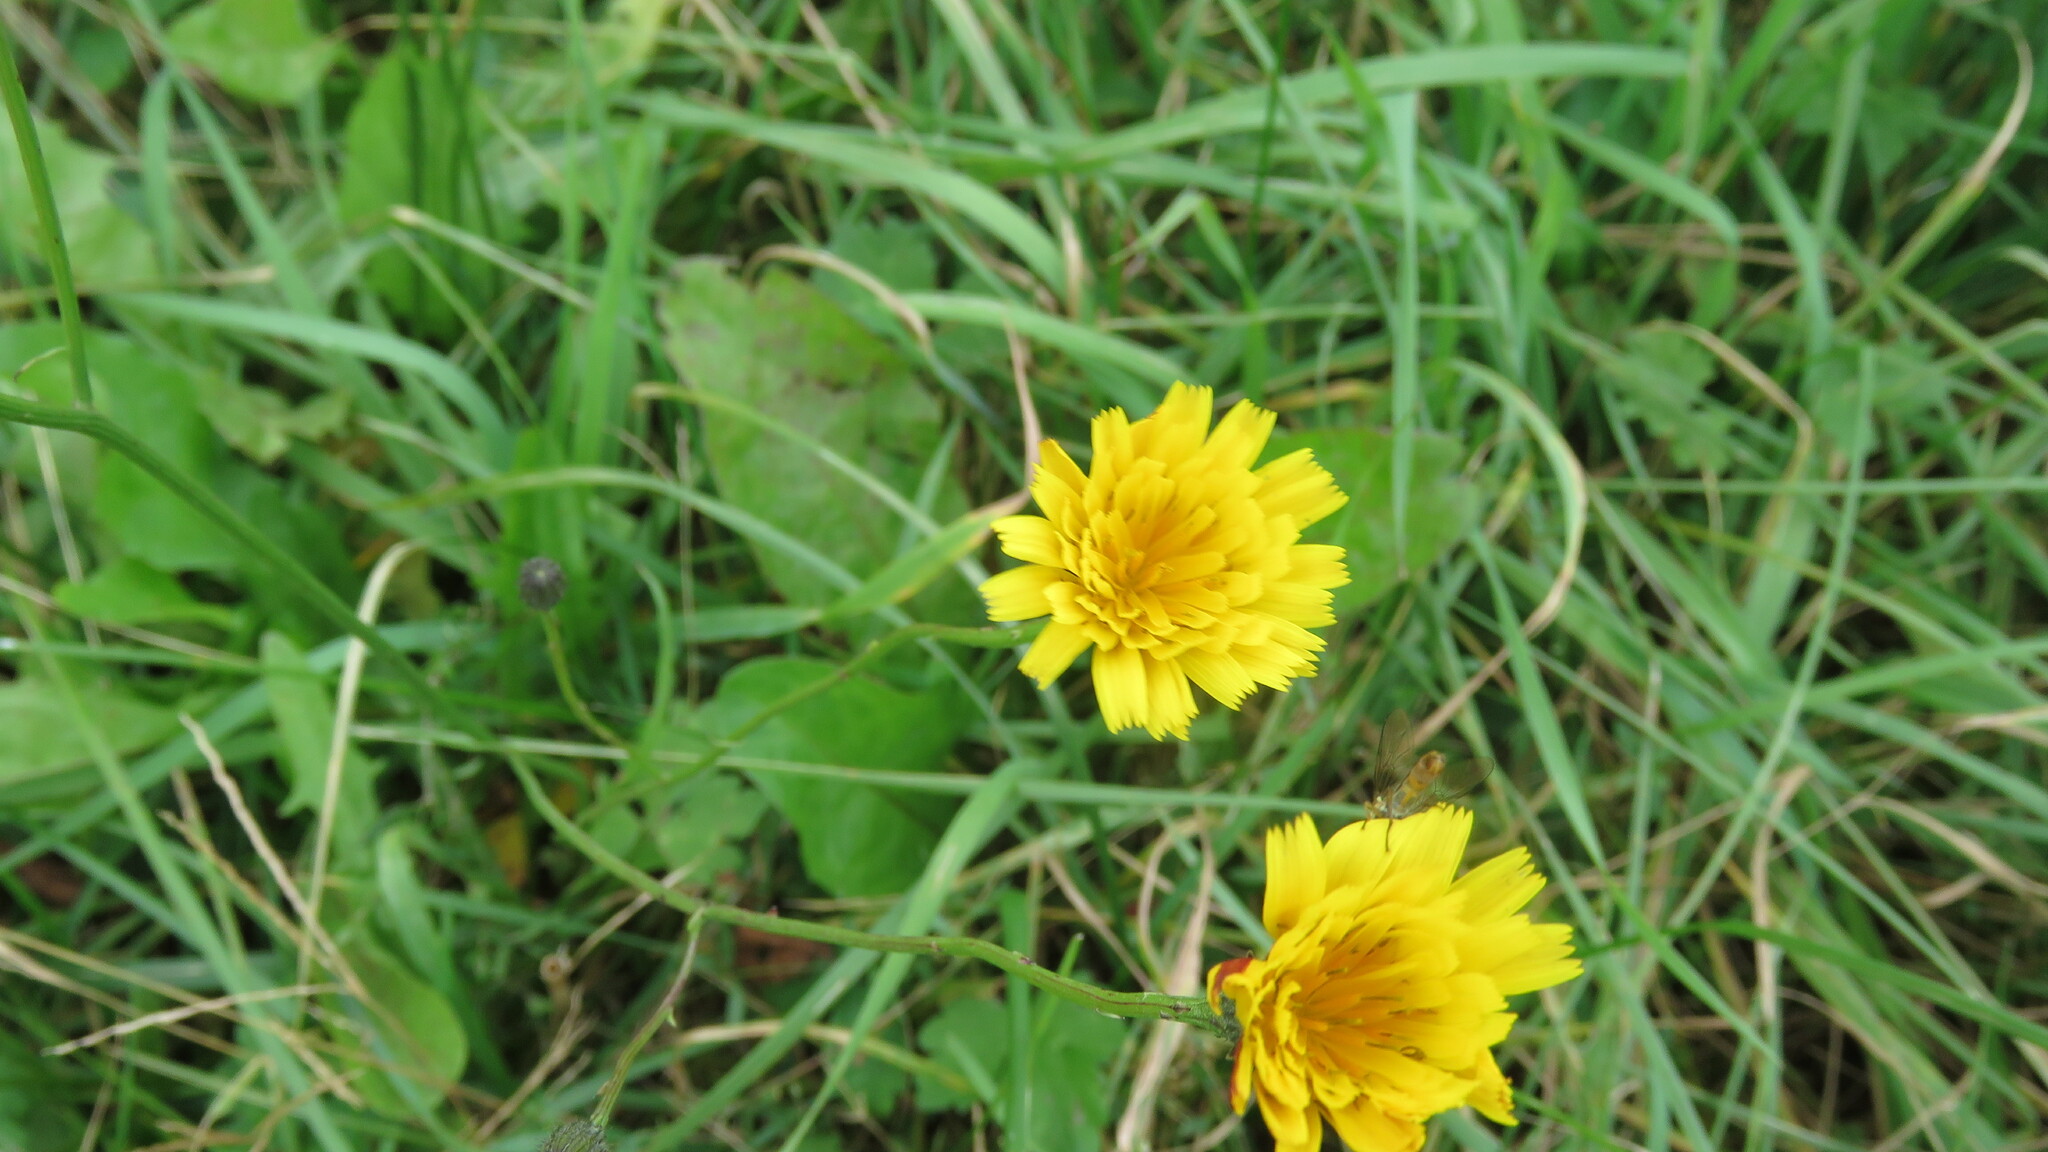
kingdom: Plantae
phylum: Tracheophyta
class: Magnoliopsida
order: Asterales
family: Asteraceae
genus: Scorzoneroides
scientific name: Scorzoneroides autumnalis
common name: Autumn hawkbit
